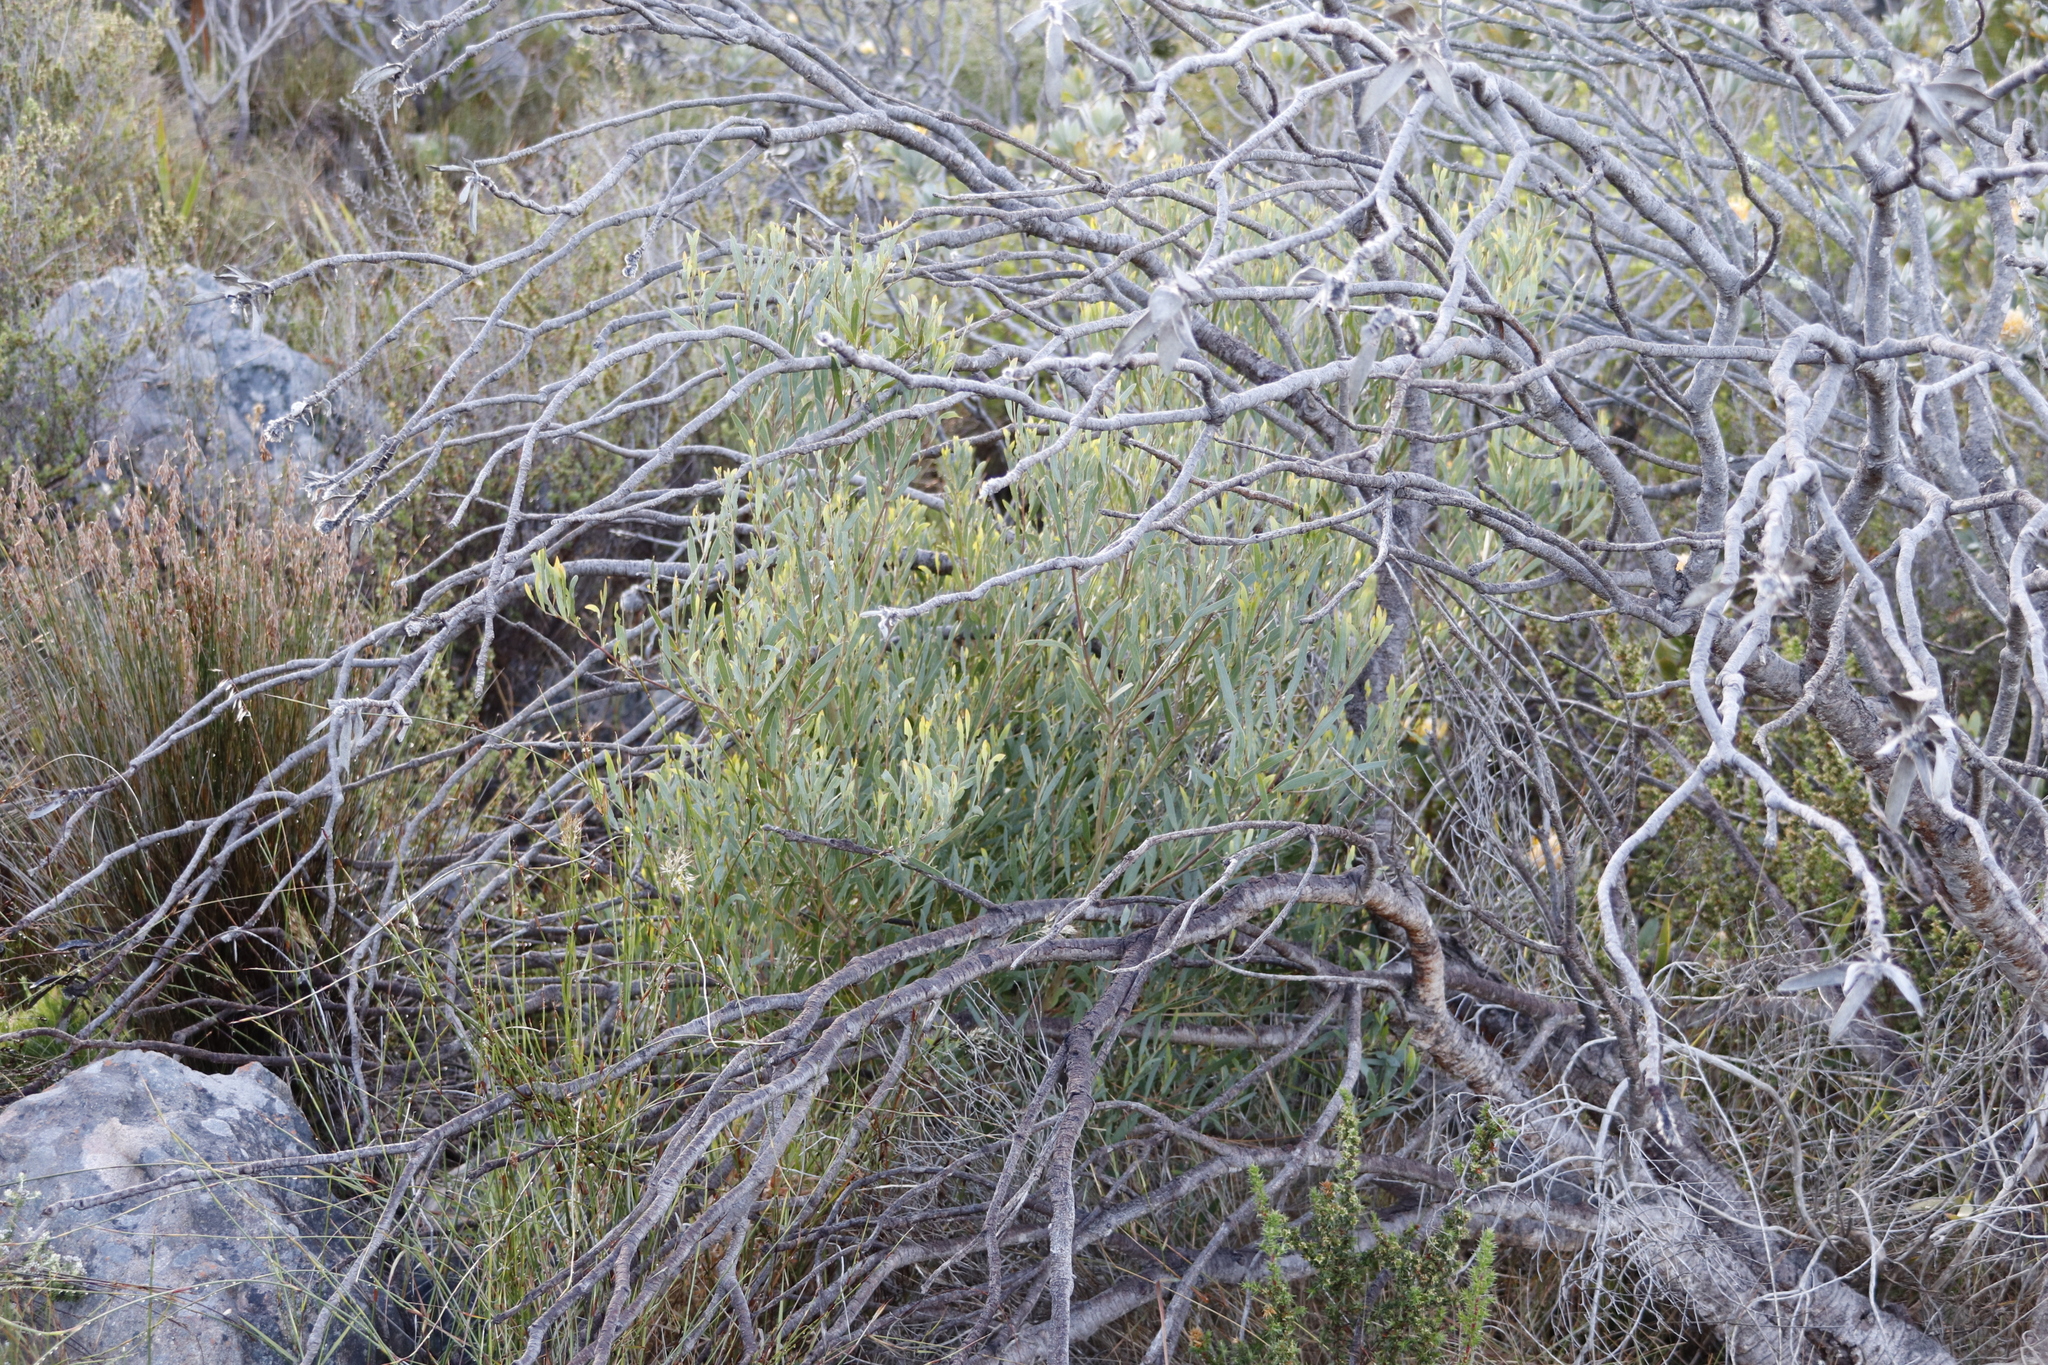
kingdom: Plantae
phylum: Tracheophyta
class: Magnoliopsida
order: Fabales
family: Fabaceae
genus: Acacia
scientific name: Acacia cyclops
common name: Coastal wattle
